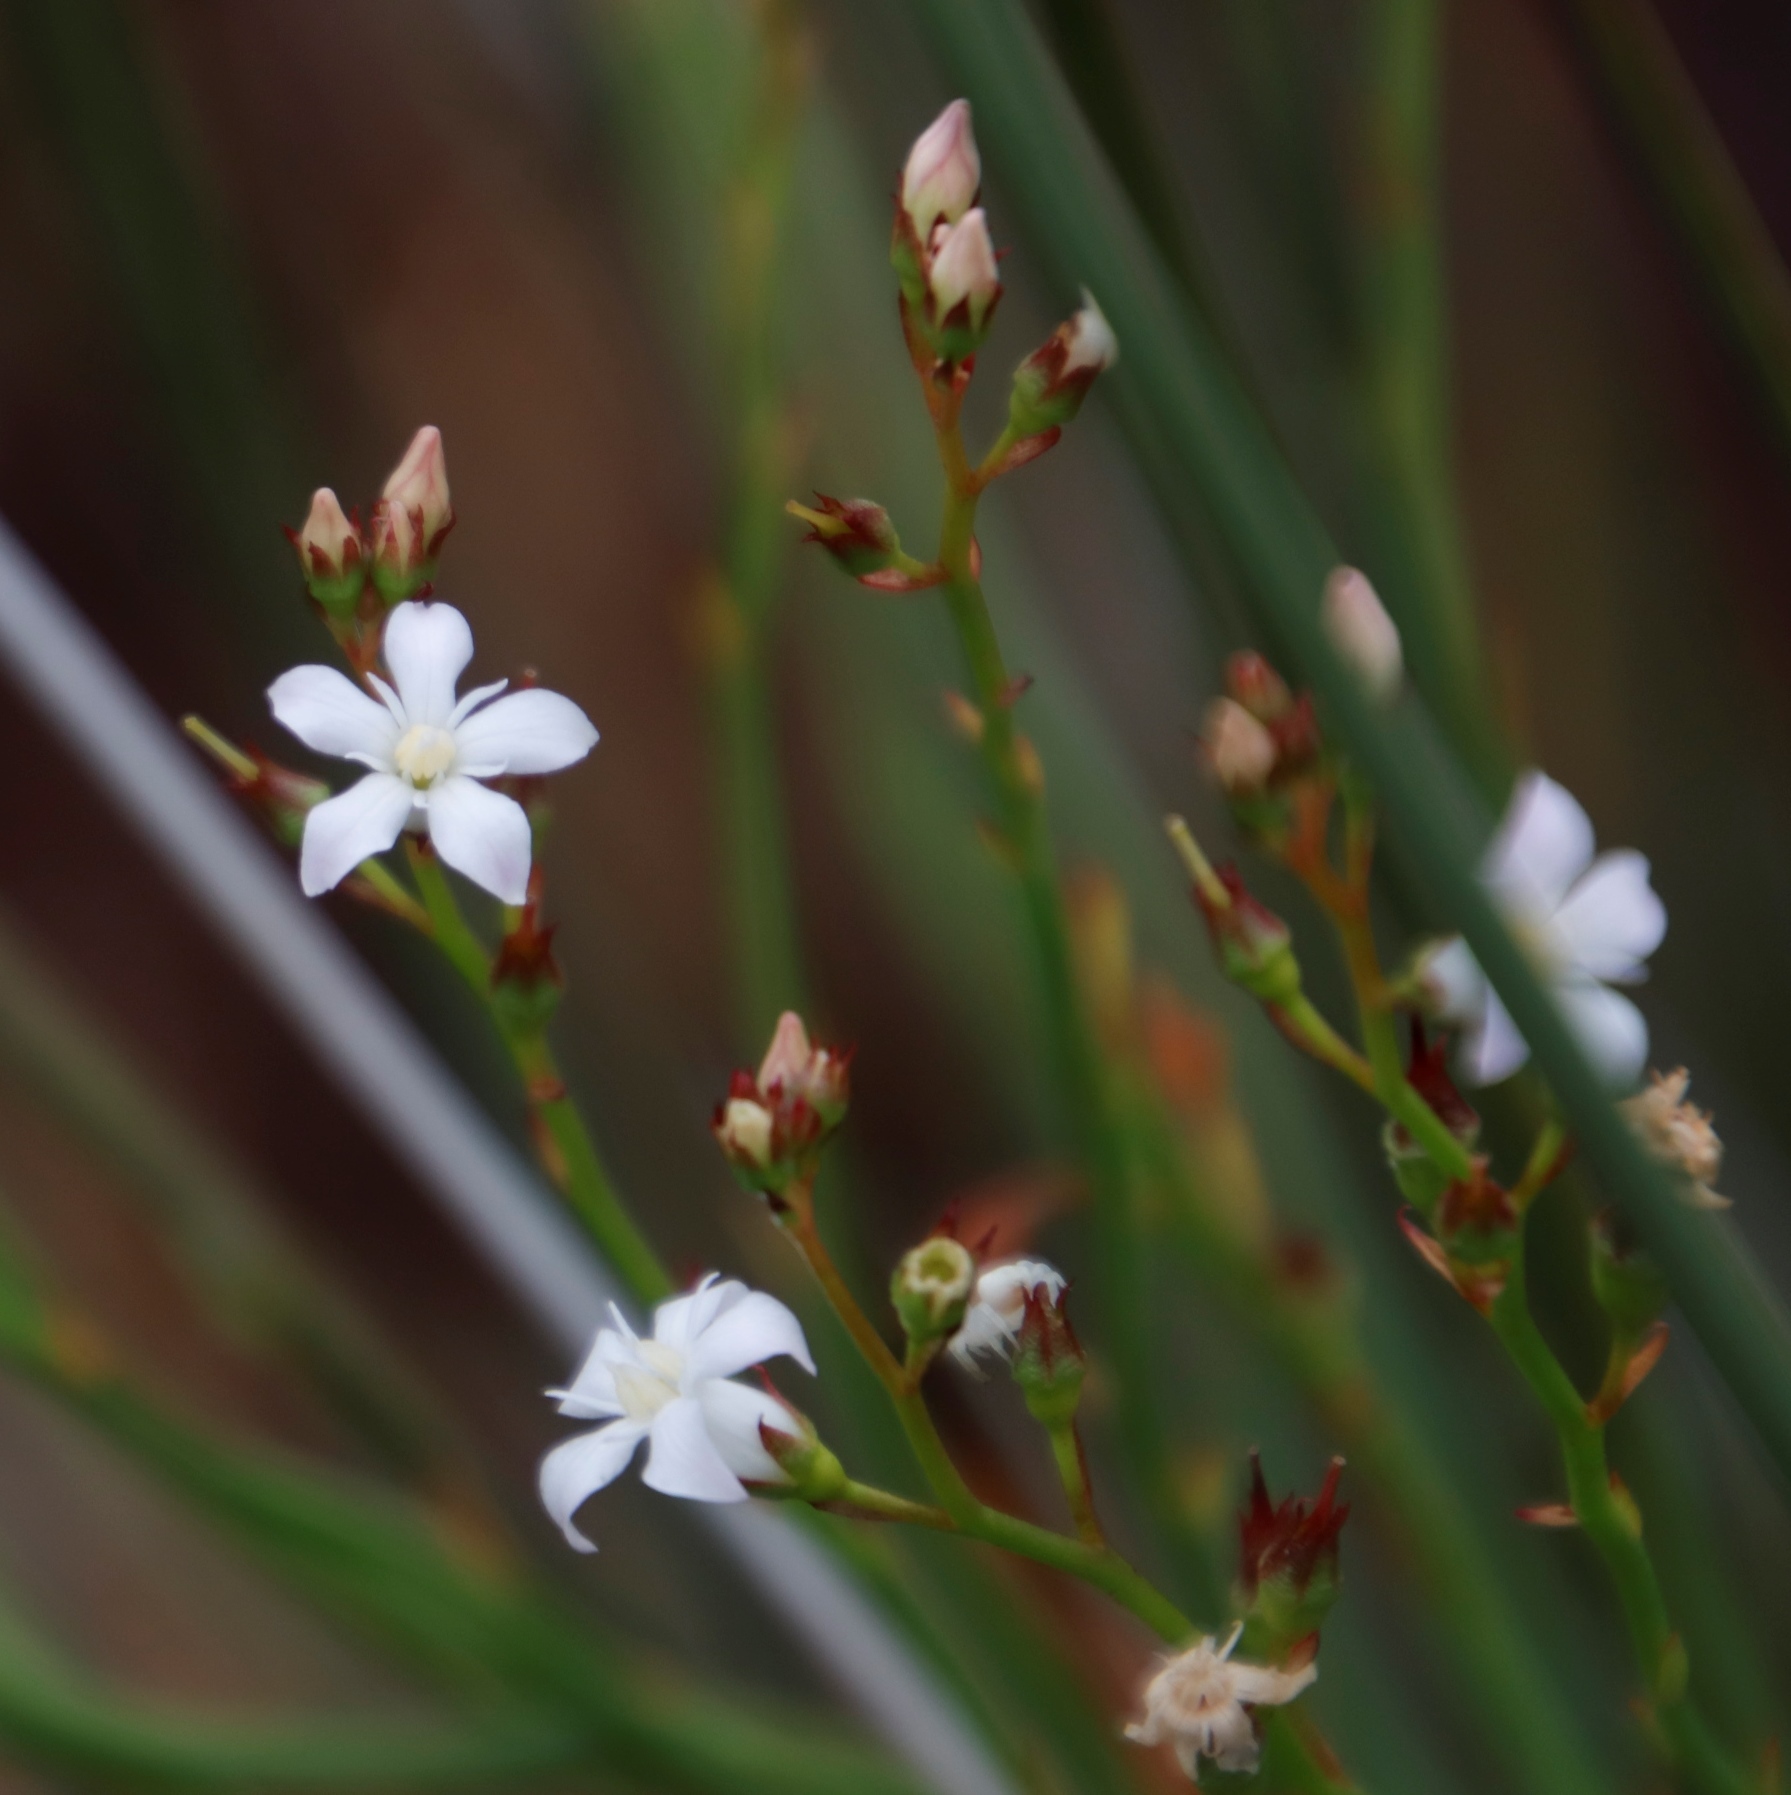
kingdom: Plantae
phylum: Tracheophyta
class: Magnoliopsida
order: Ericales
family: Primulaceae
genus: Samolus
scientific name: Samolus porosus
